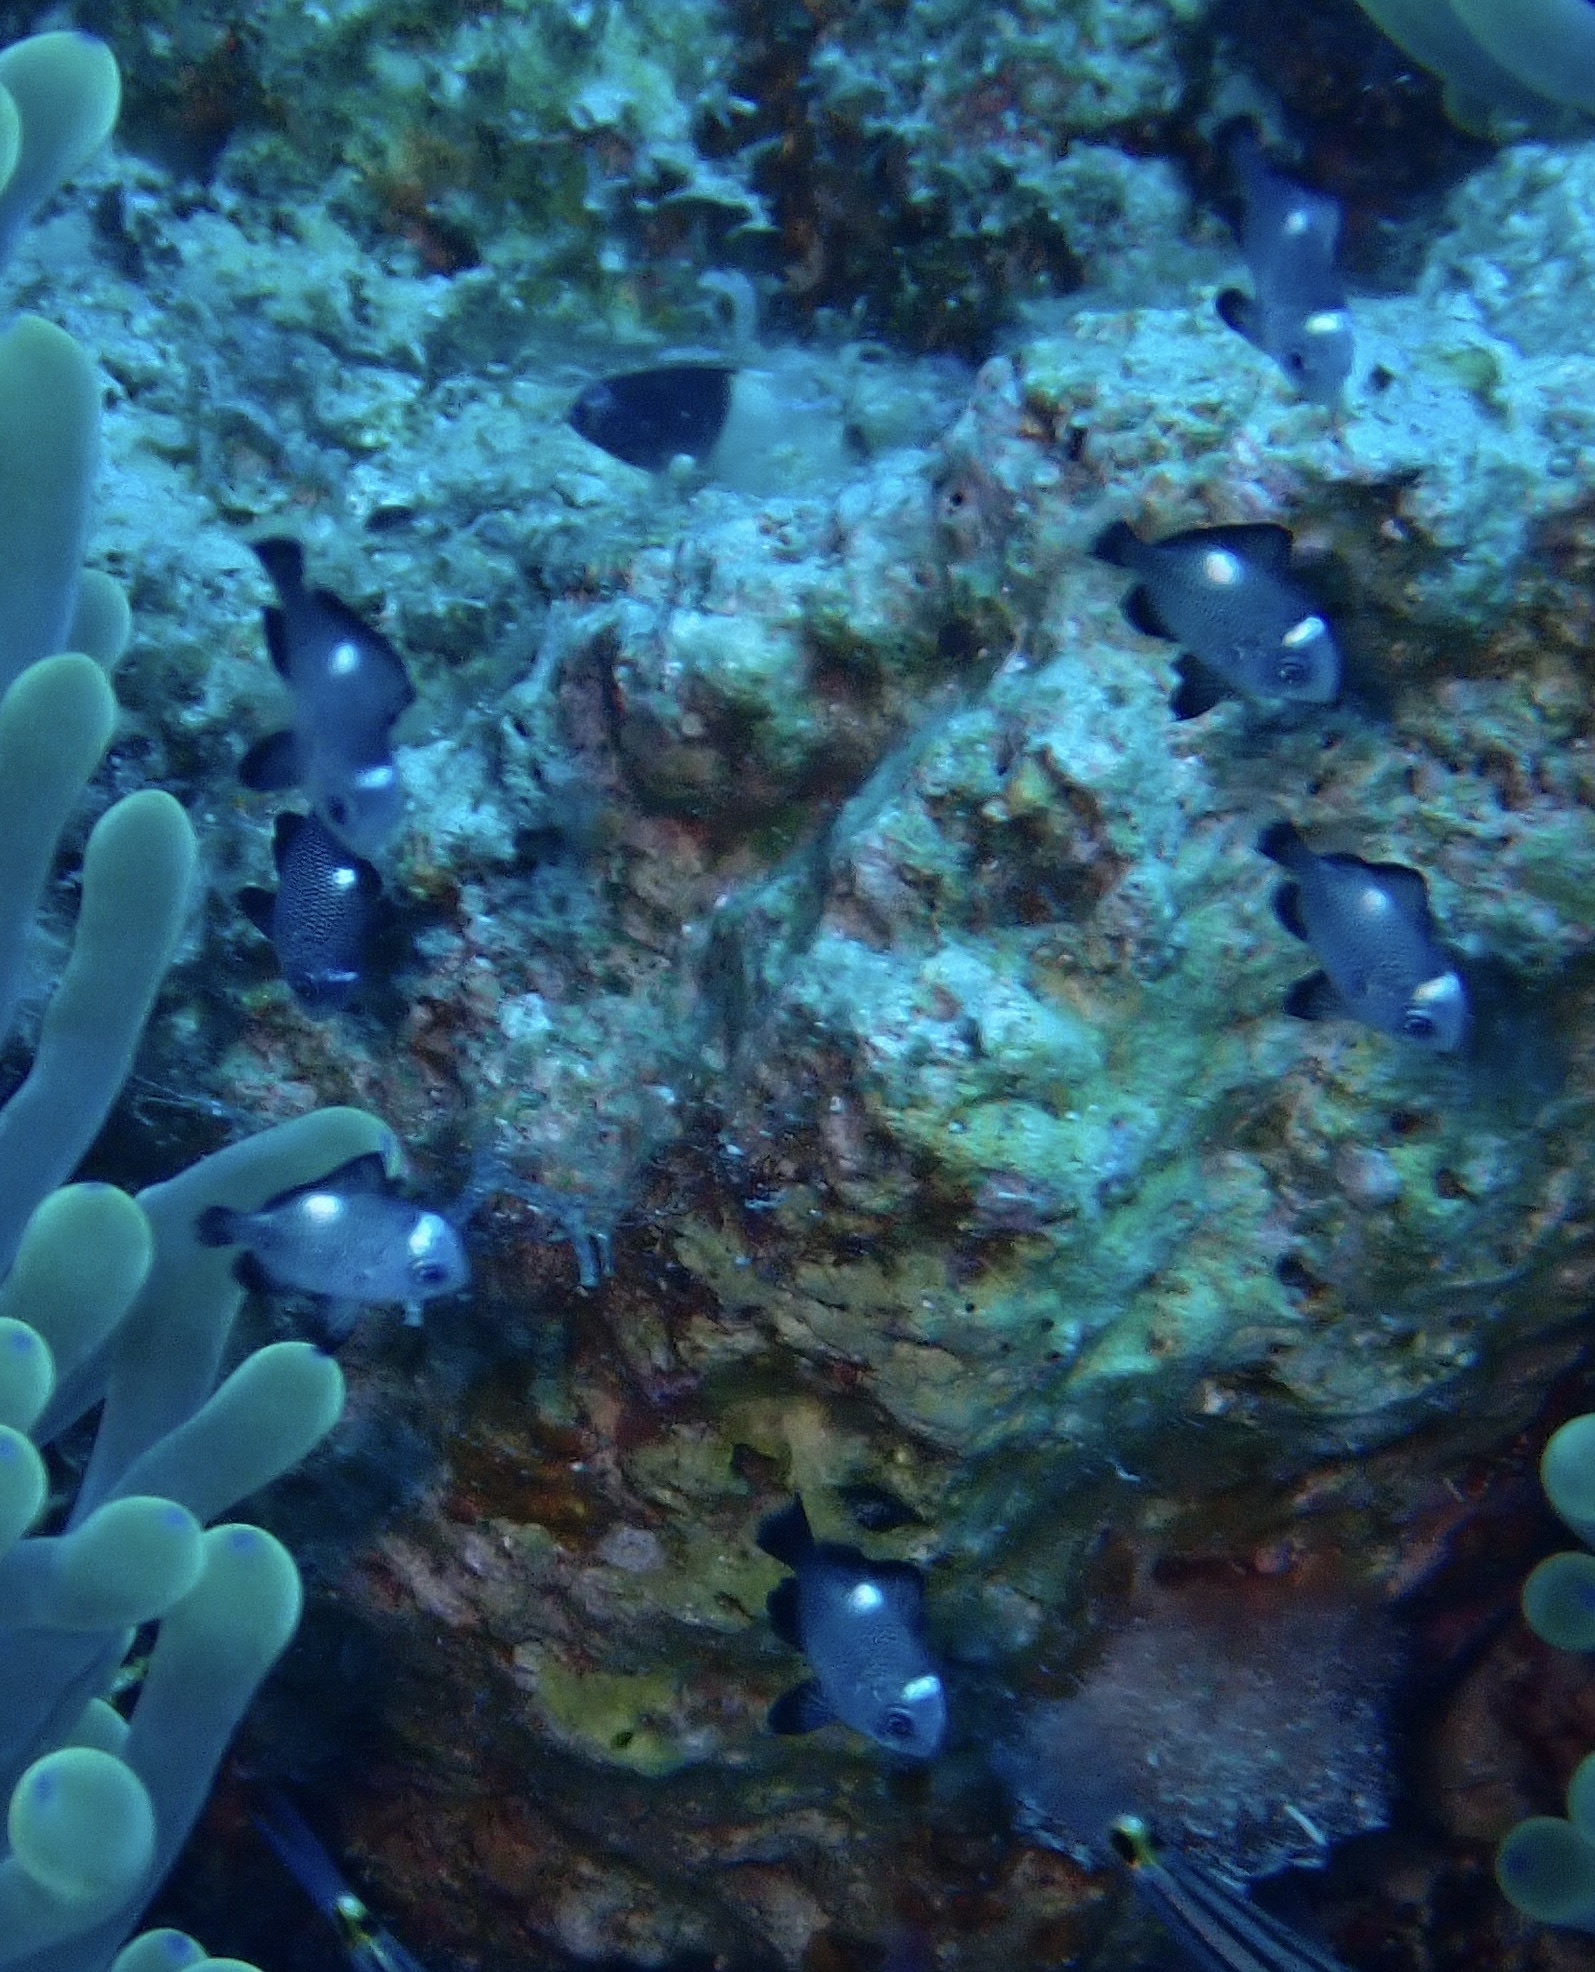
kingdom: Animalia
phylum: Chordata
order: Perciformes
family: Pomacentridae
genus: Dascyllus
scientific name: Dascyllus trimaculatus
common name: Threespot dascyllus
